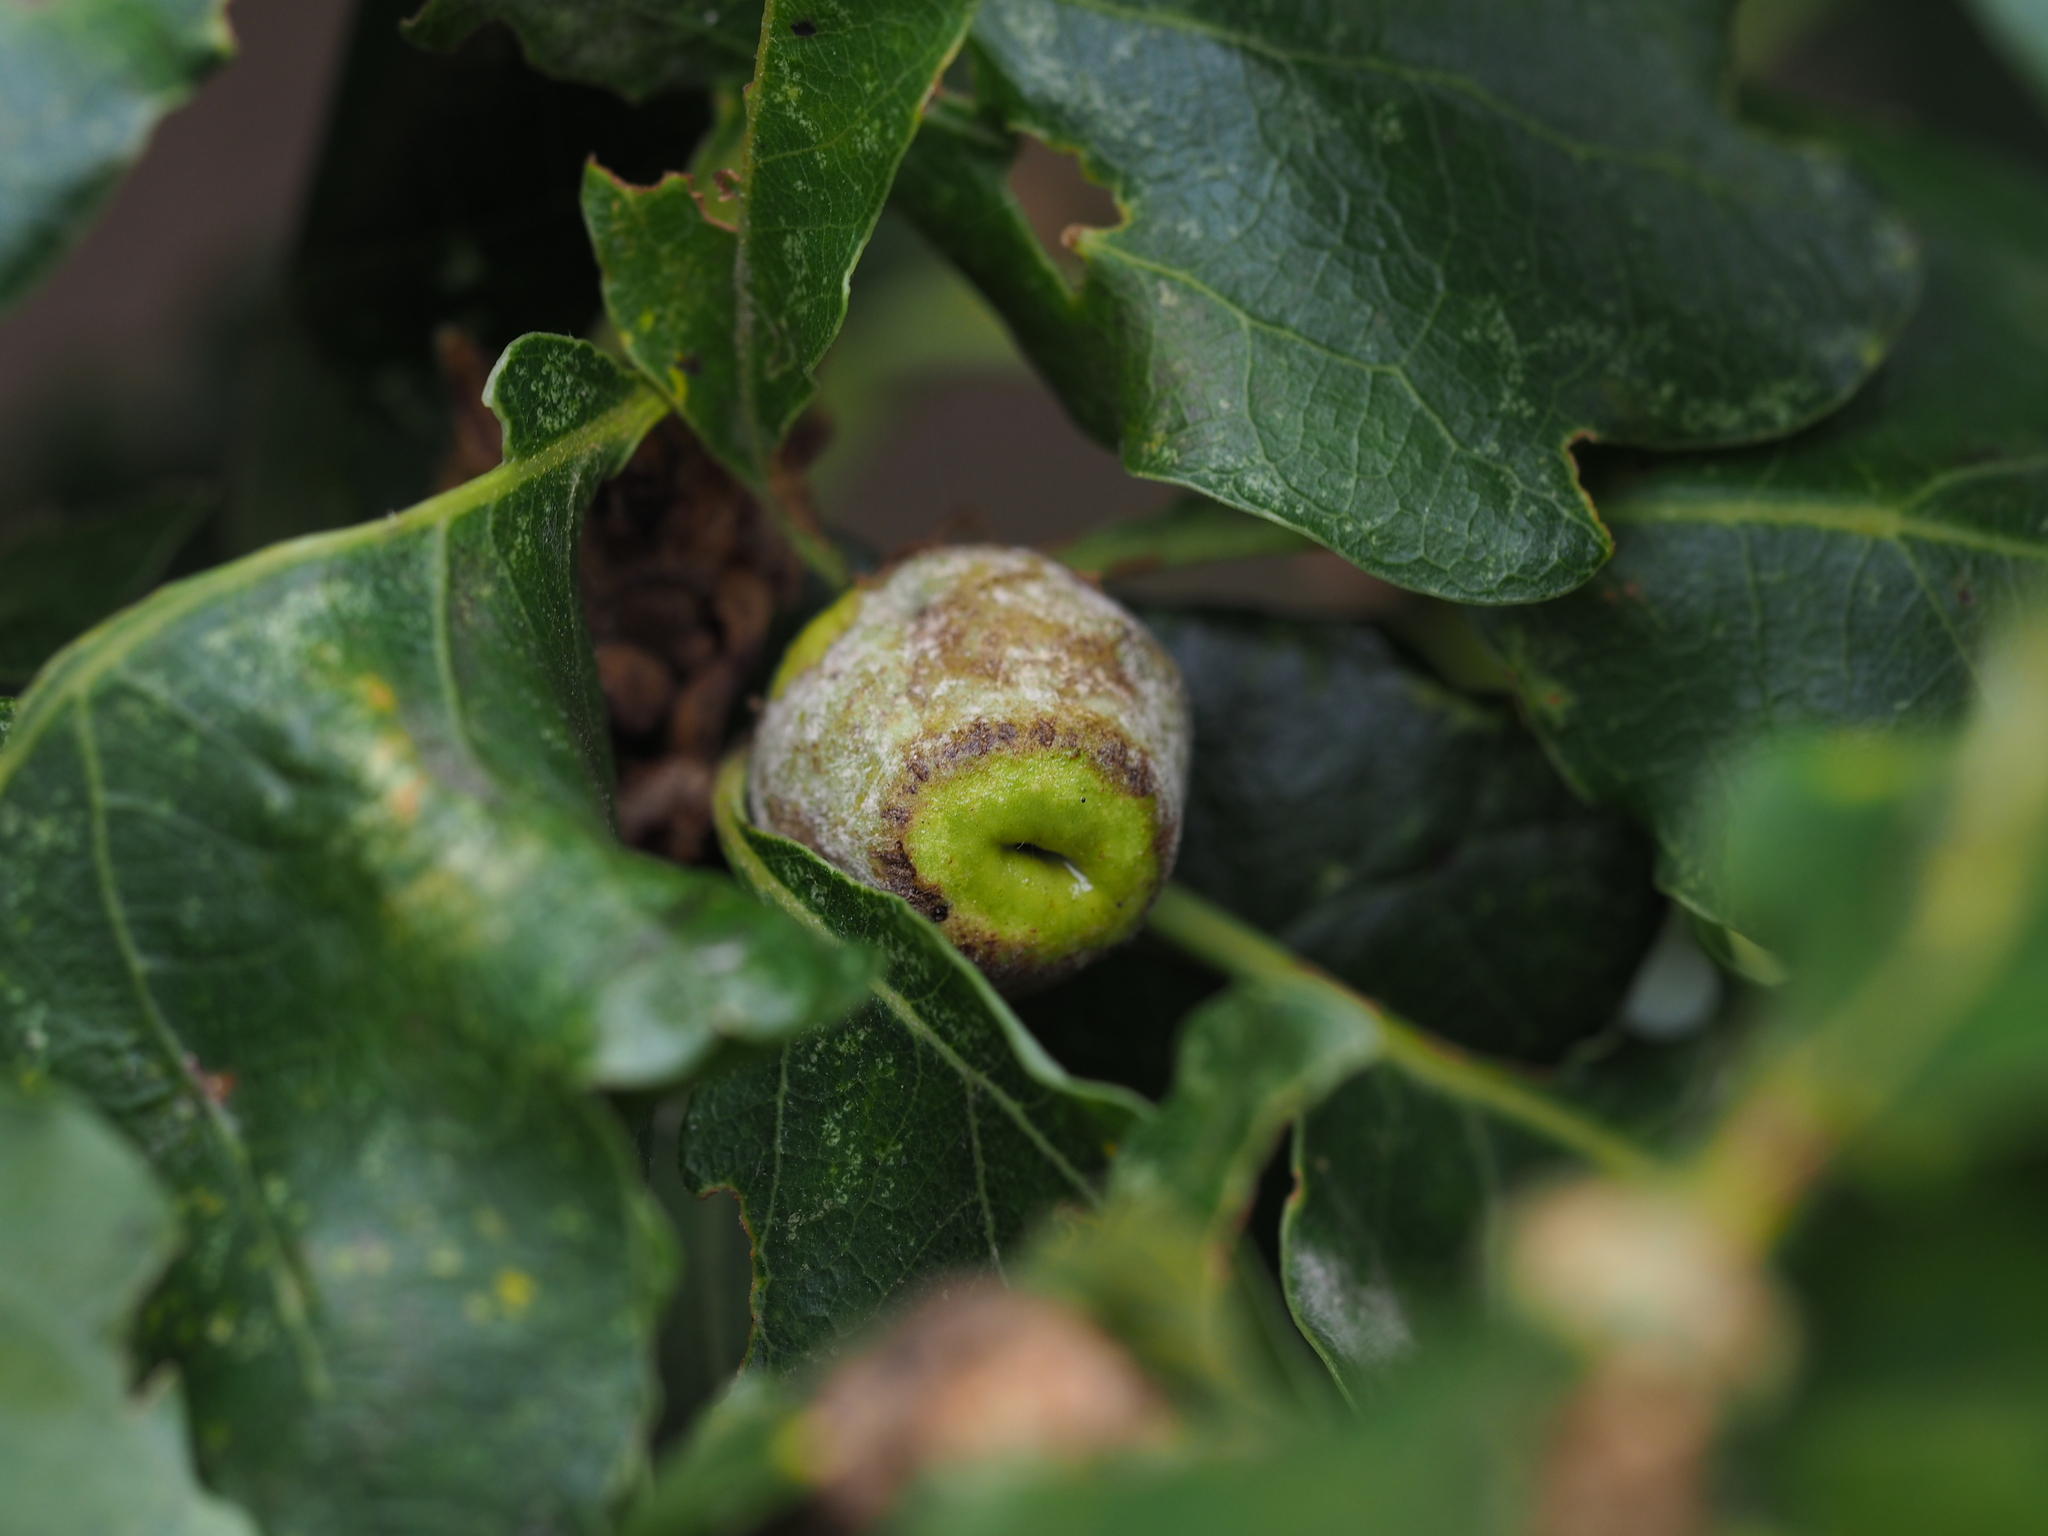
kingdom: Animalia
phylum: Arthropoda
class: Insecta
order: Hymenoptera
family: Cynipidae
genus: Andricus
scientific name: Andricus glutinosus
